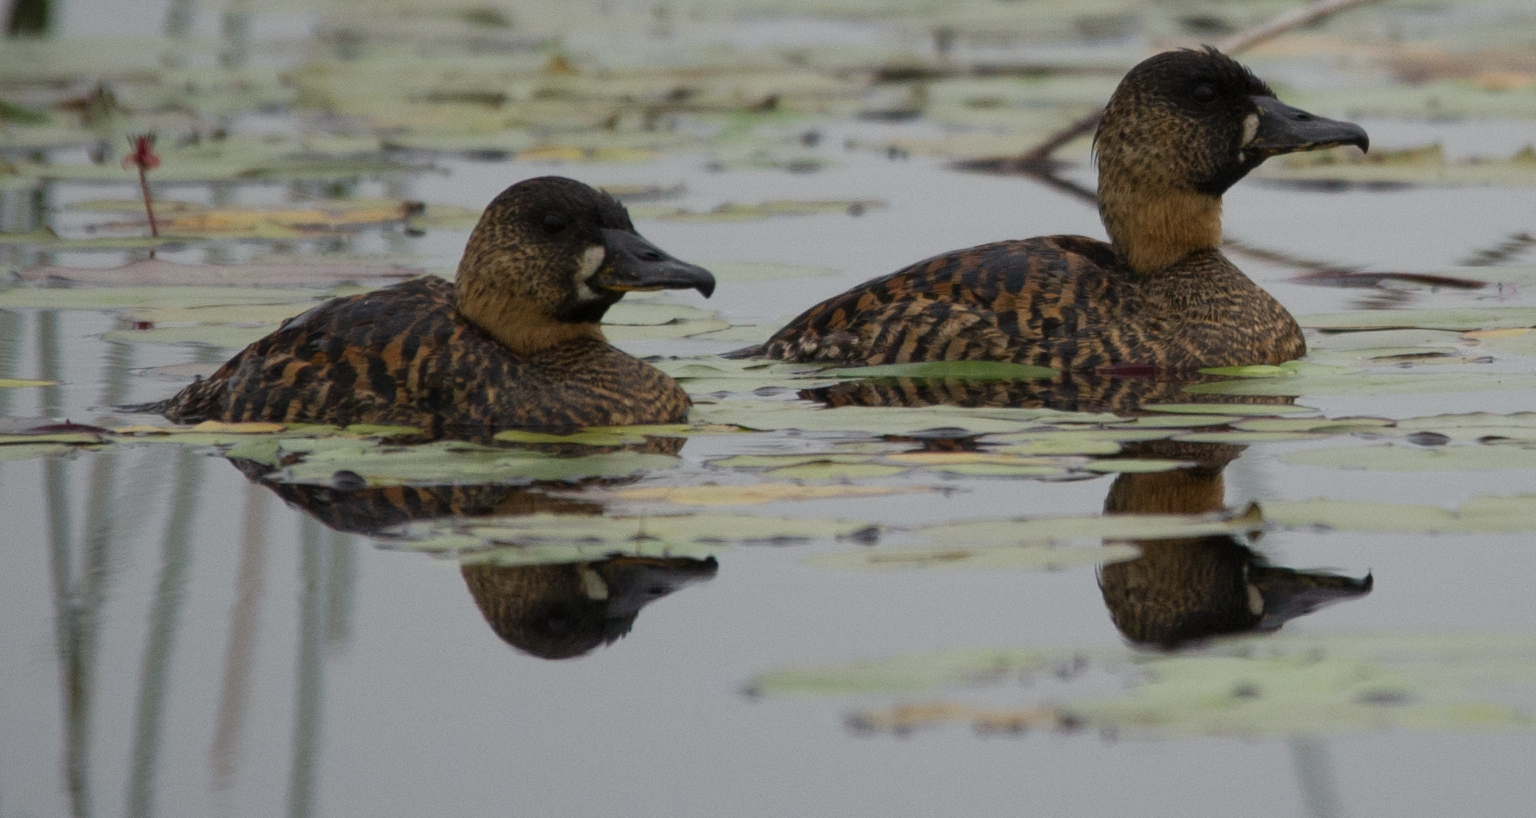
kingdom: Animalia
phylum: Chordata
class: Aves
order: Anseriformes
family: Anatidae
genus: Thalassornis
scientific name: Thalassornis leuconotus
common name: White-backed duck
